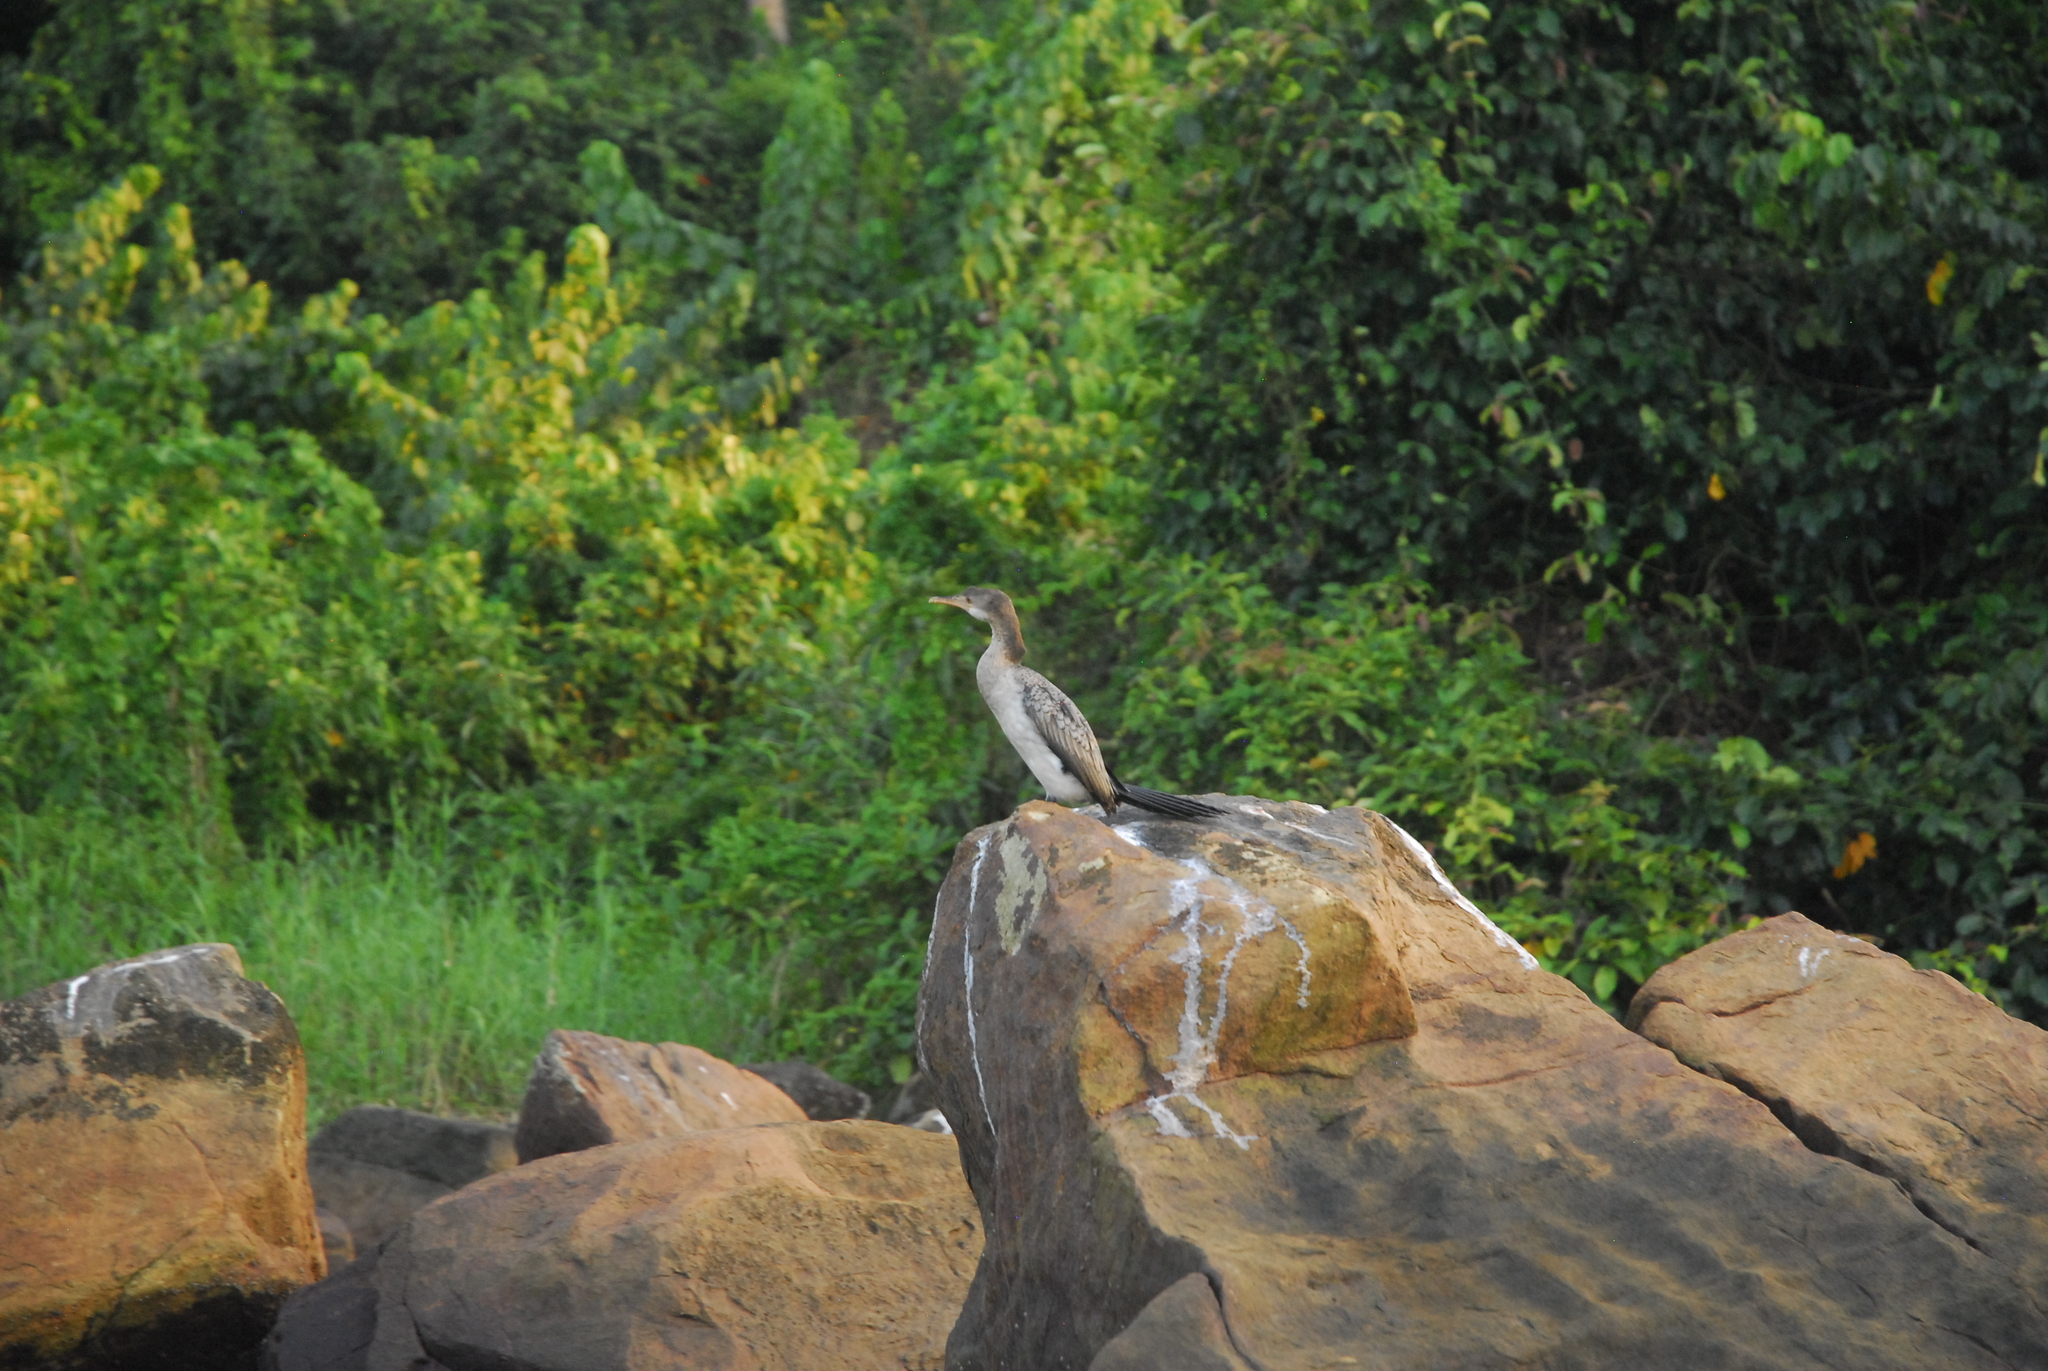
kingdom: Animalia
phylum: Chordata
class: Aves
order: Suliformes
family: Phalacrocoracidae
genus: Microcarbo
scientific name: Microcarbo africanus
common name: Long-tailed cormorant
